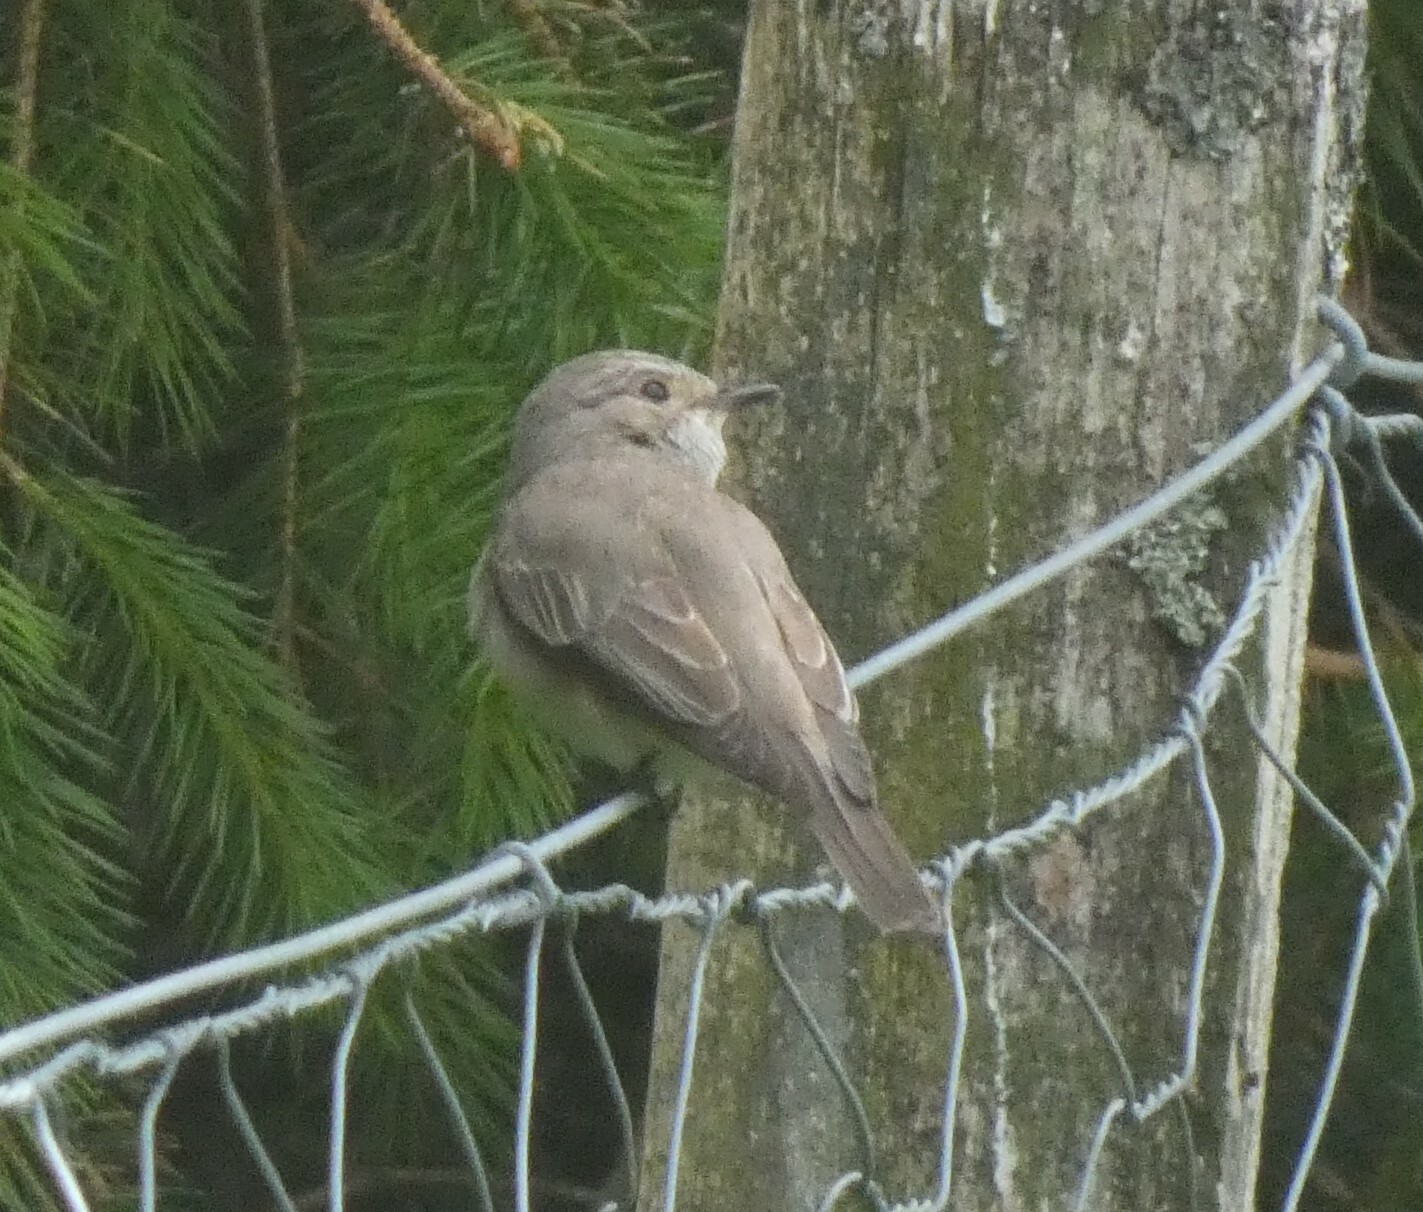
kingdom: Animalia
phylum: Chordata
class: Aves
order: Passeriformes
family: Muscicapidae
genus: Muscicapa
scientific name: Muscicapa striata
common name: Spotted flycatcher
